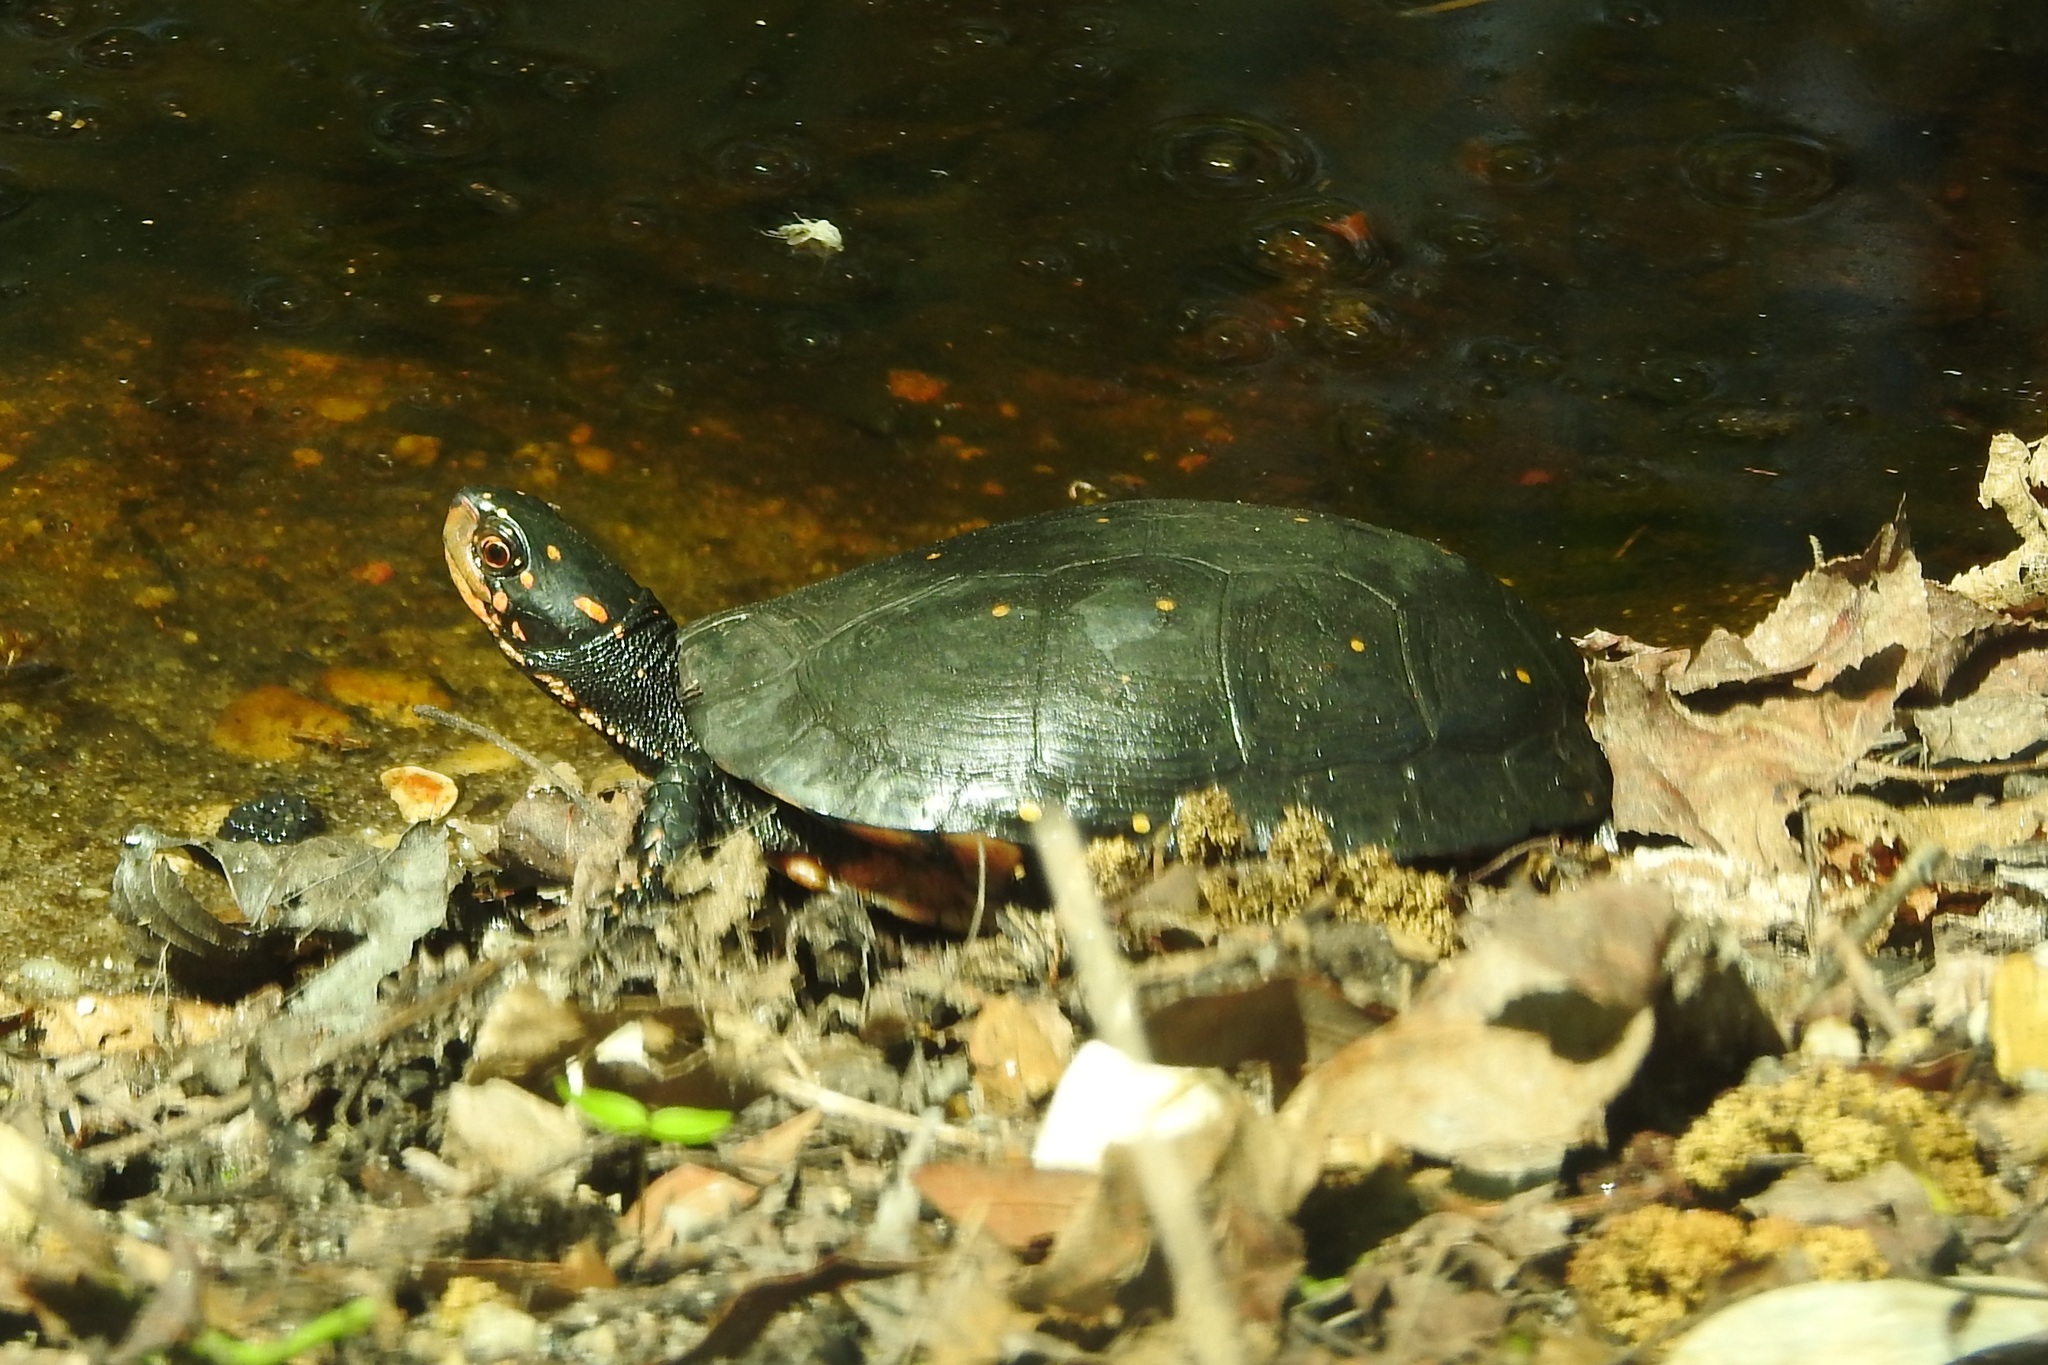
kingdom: Animalia
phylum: Chordata
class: Testudines
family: Emydidae
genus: Clemmys
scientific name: Clemmys guttata
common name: Spotted turtle
